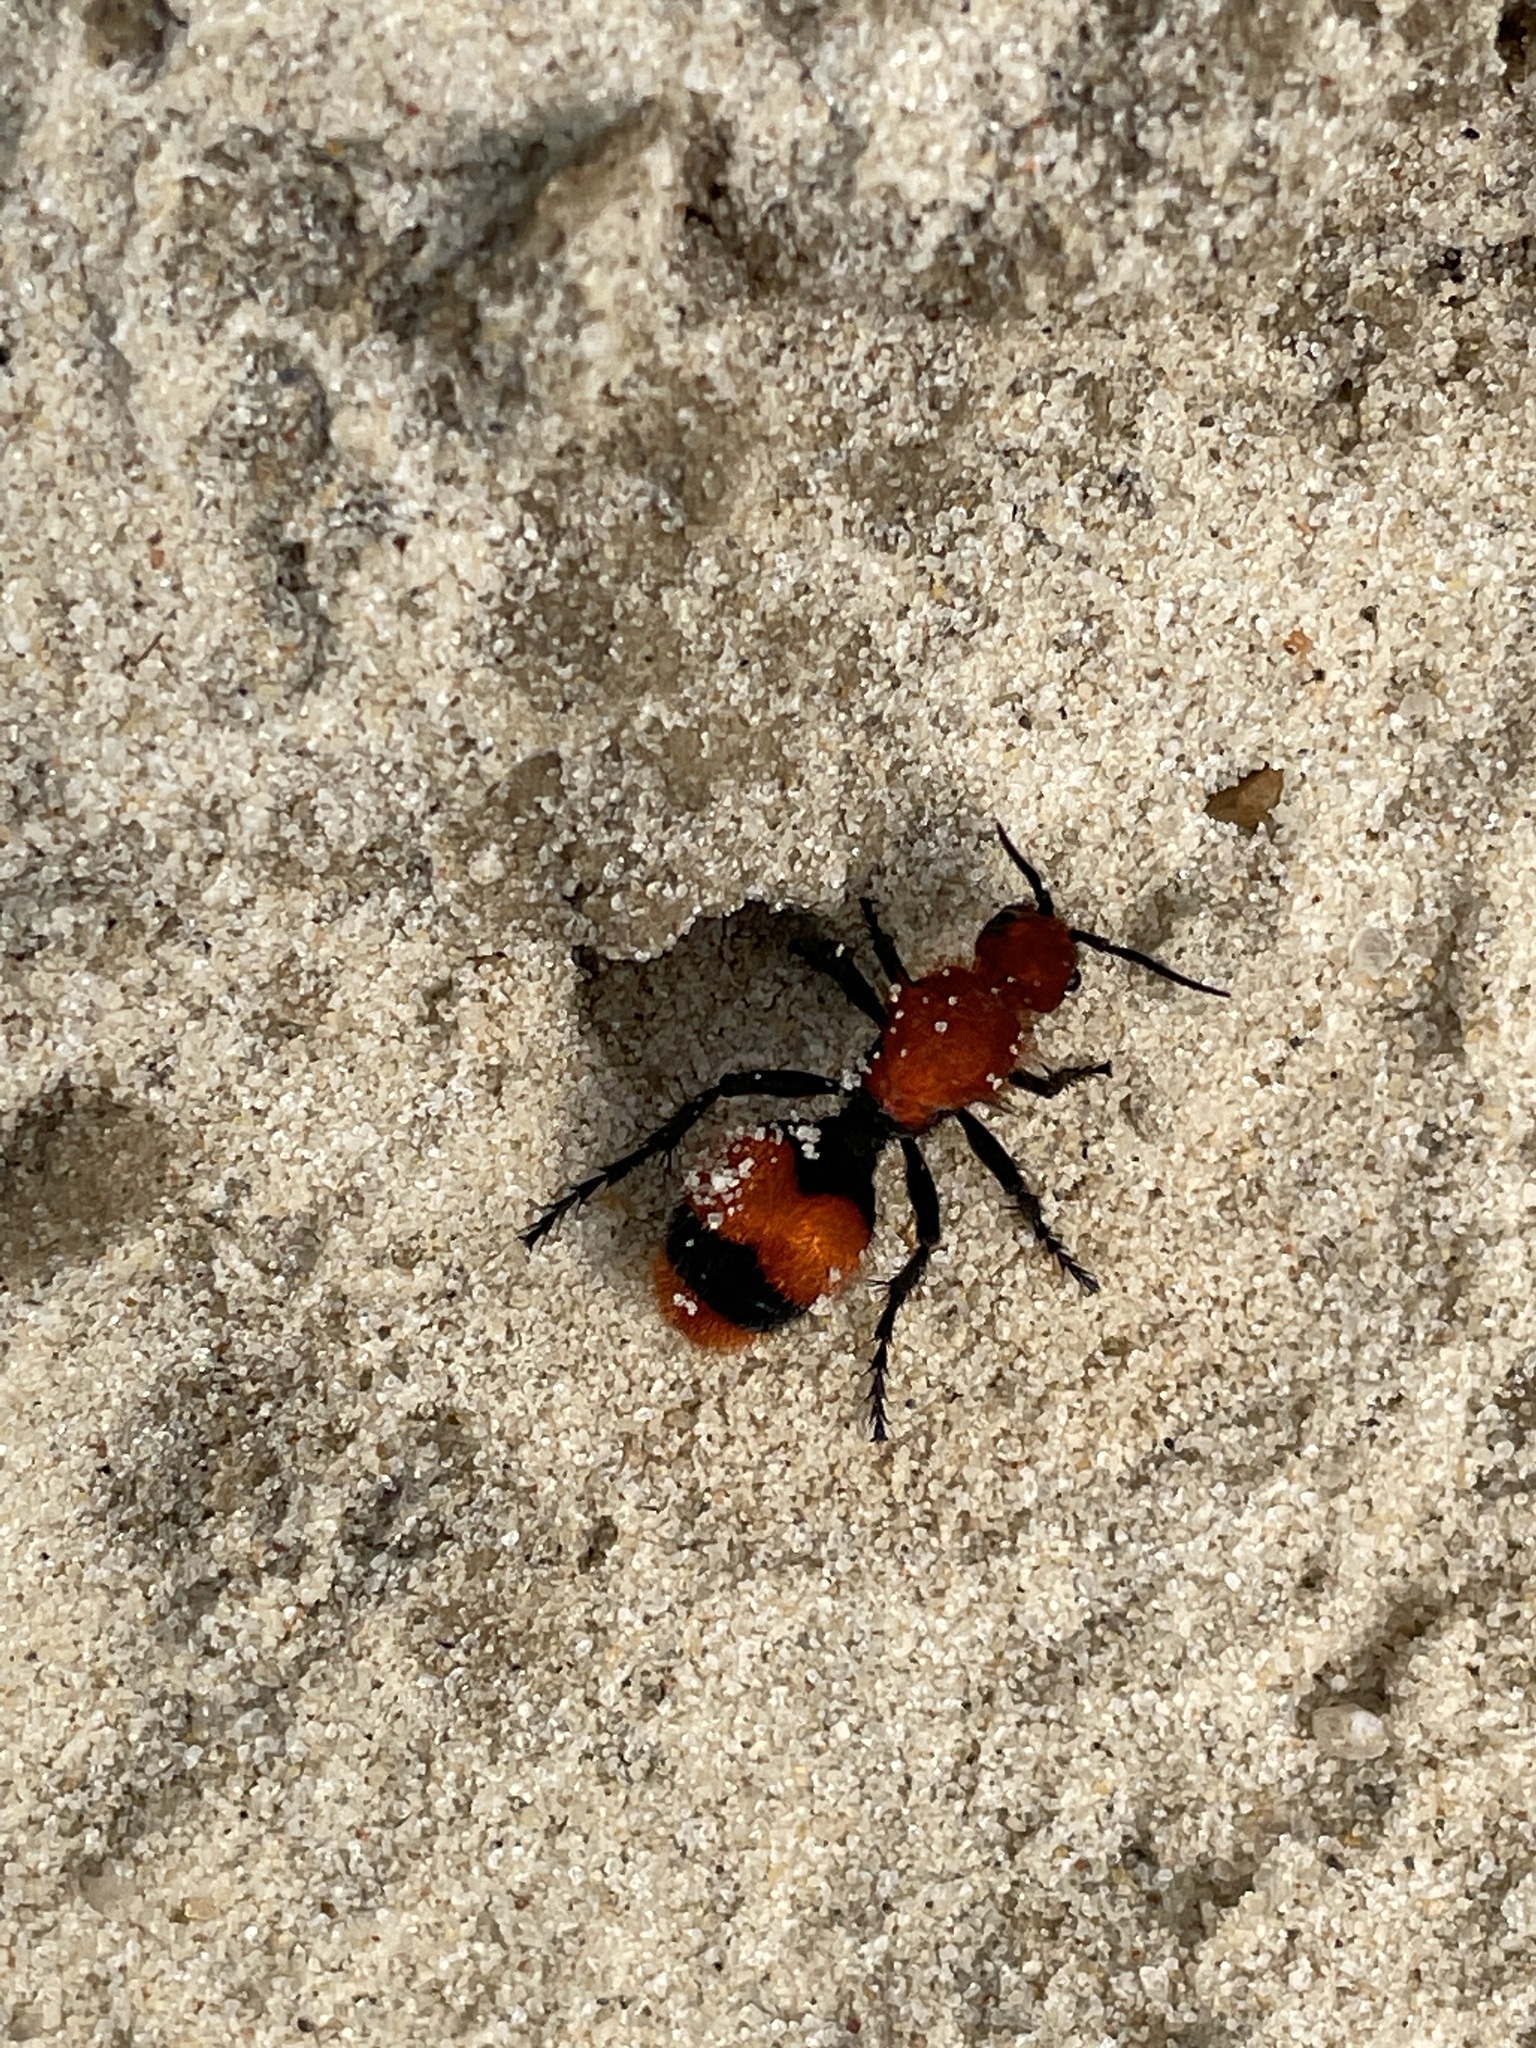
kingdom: Animalia
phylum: Arthropoda
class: Insecta
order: Hymenoptera
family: Mutillidae
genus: Dasymutilla
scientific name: Dasymutilla occidentalis
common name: Common eastern velvet ant
